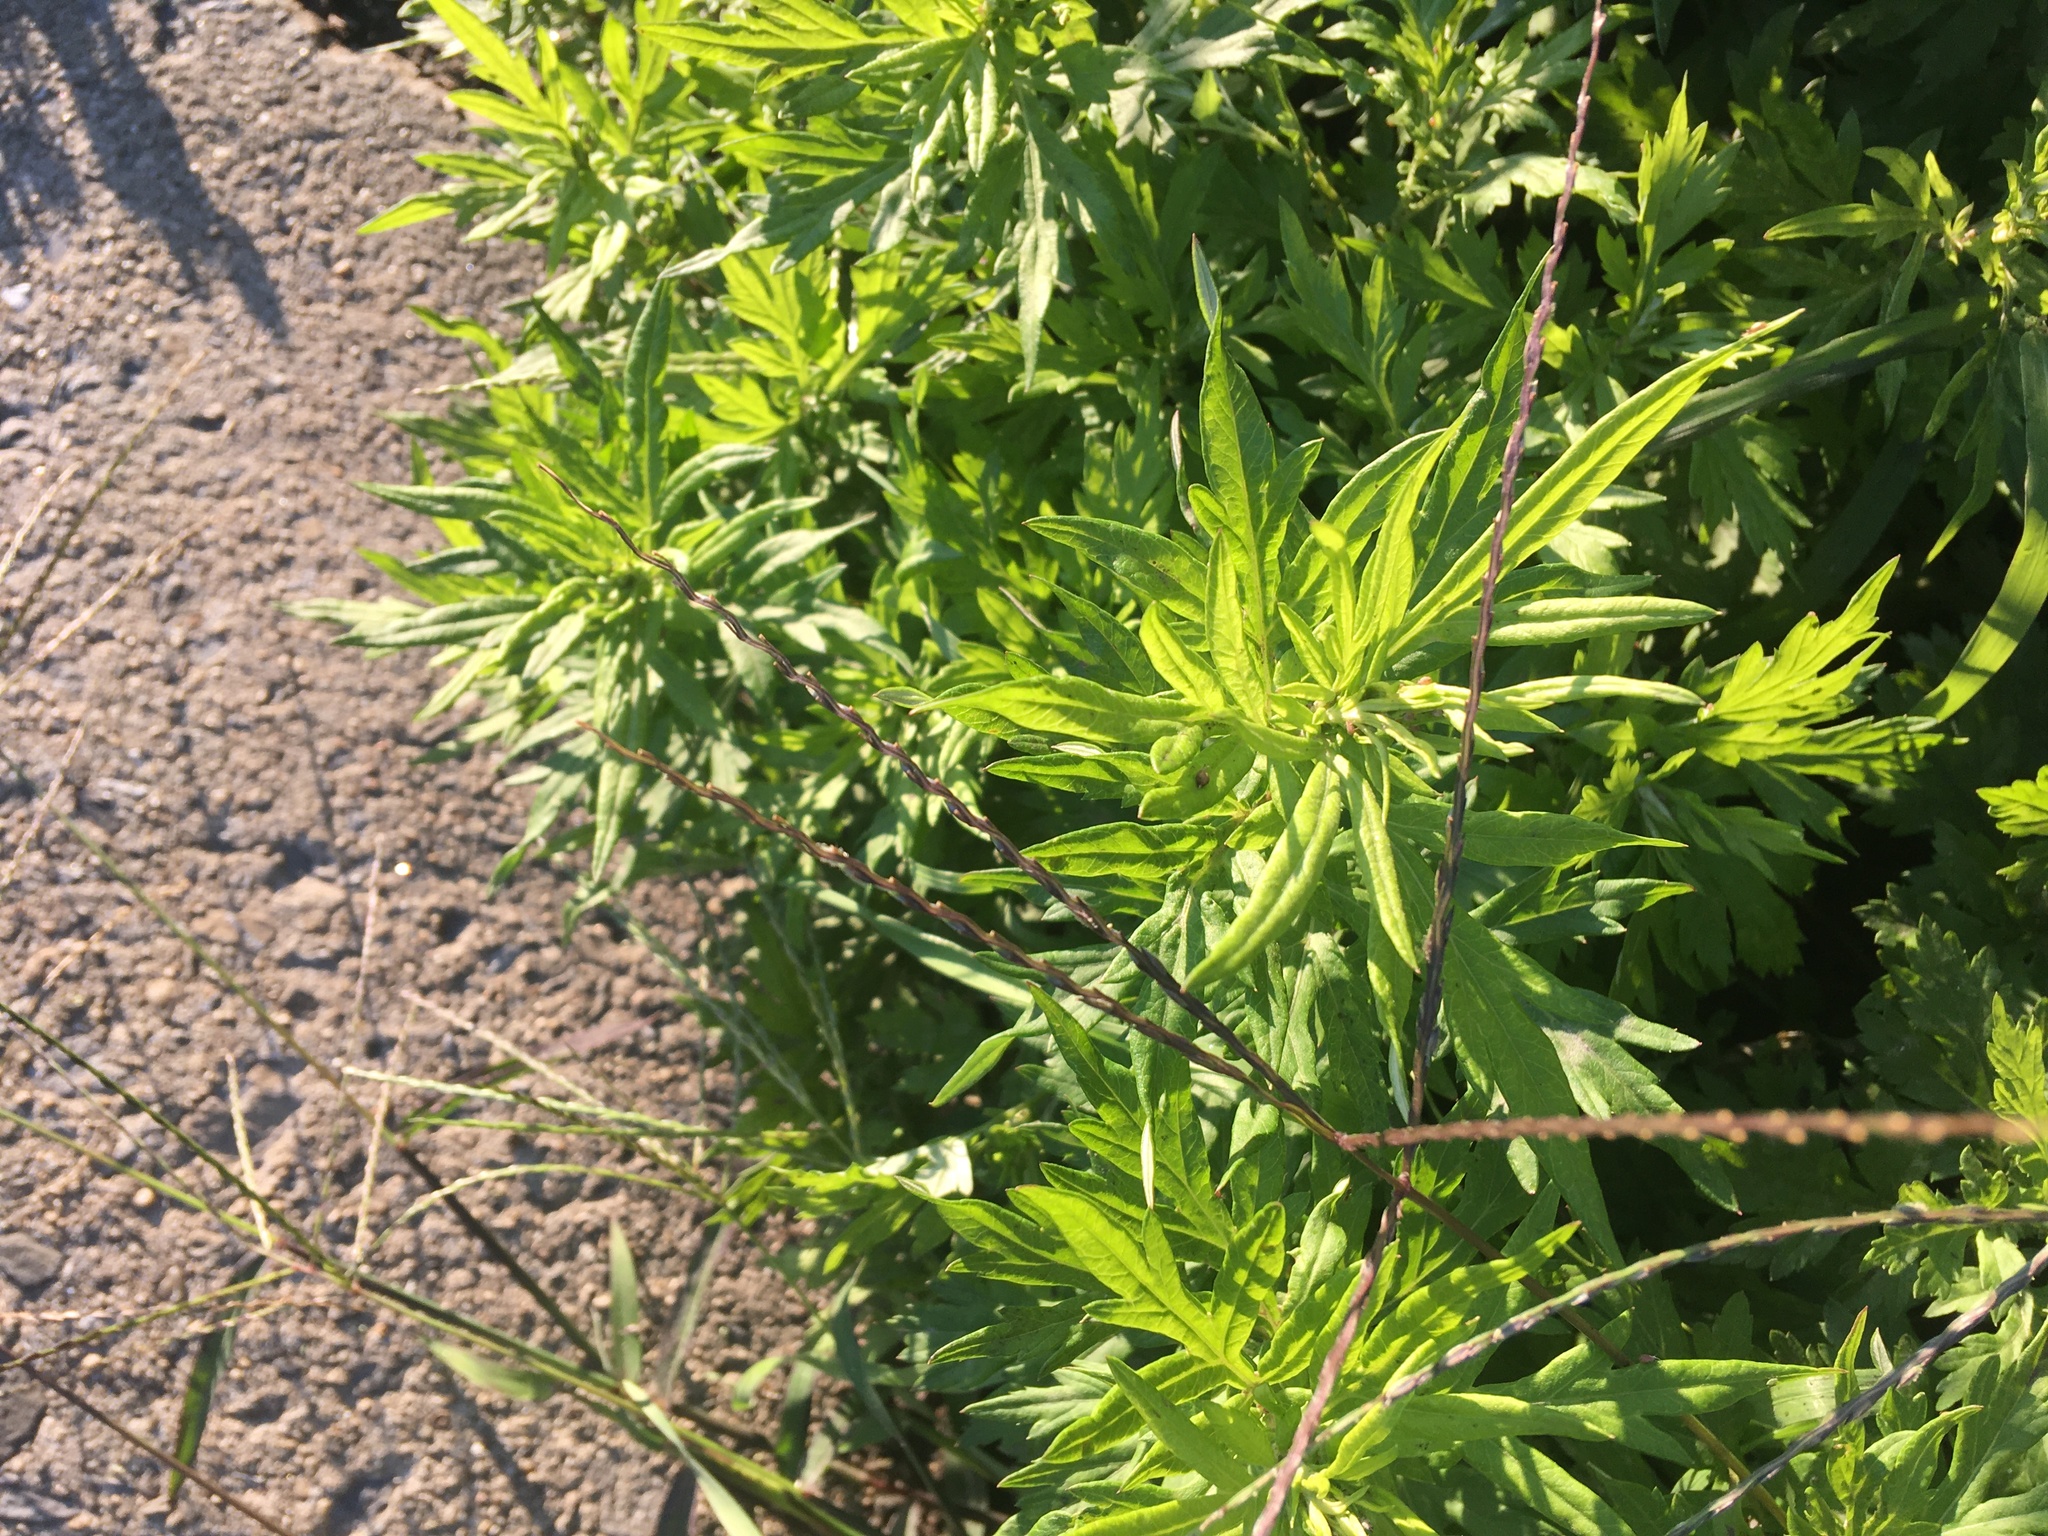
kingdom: Plantae
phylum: Tracheophyta
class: Magnoliopsida
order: Asterales
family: Asteraceae
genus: Artemisia
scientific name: Artemisia vulgaris
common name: Mugwort
